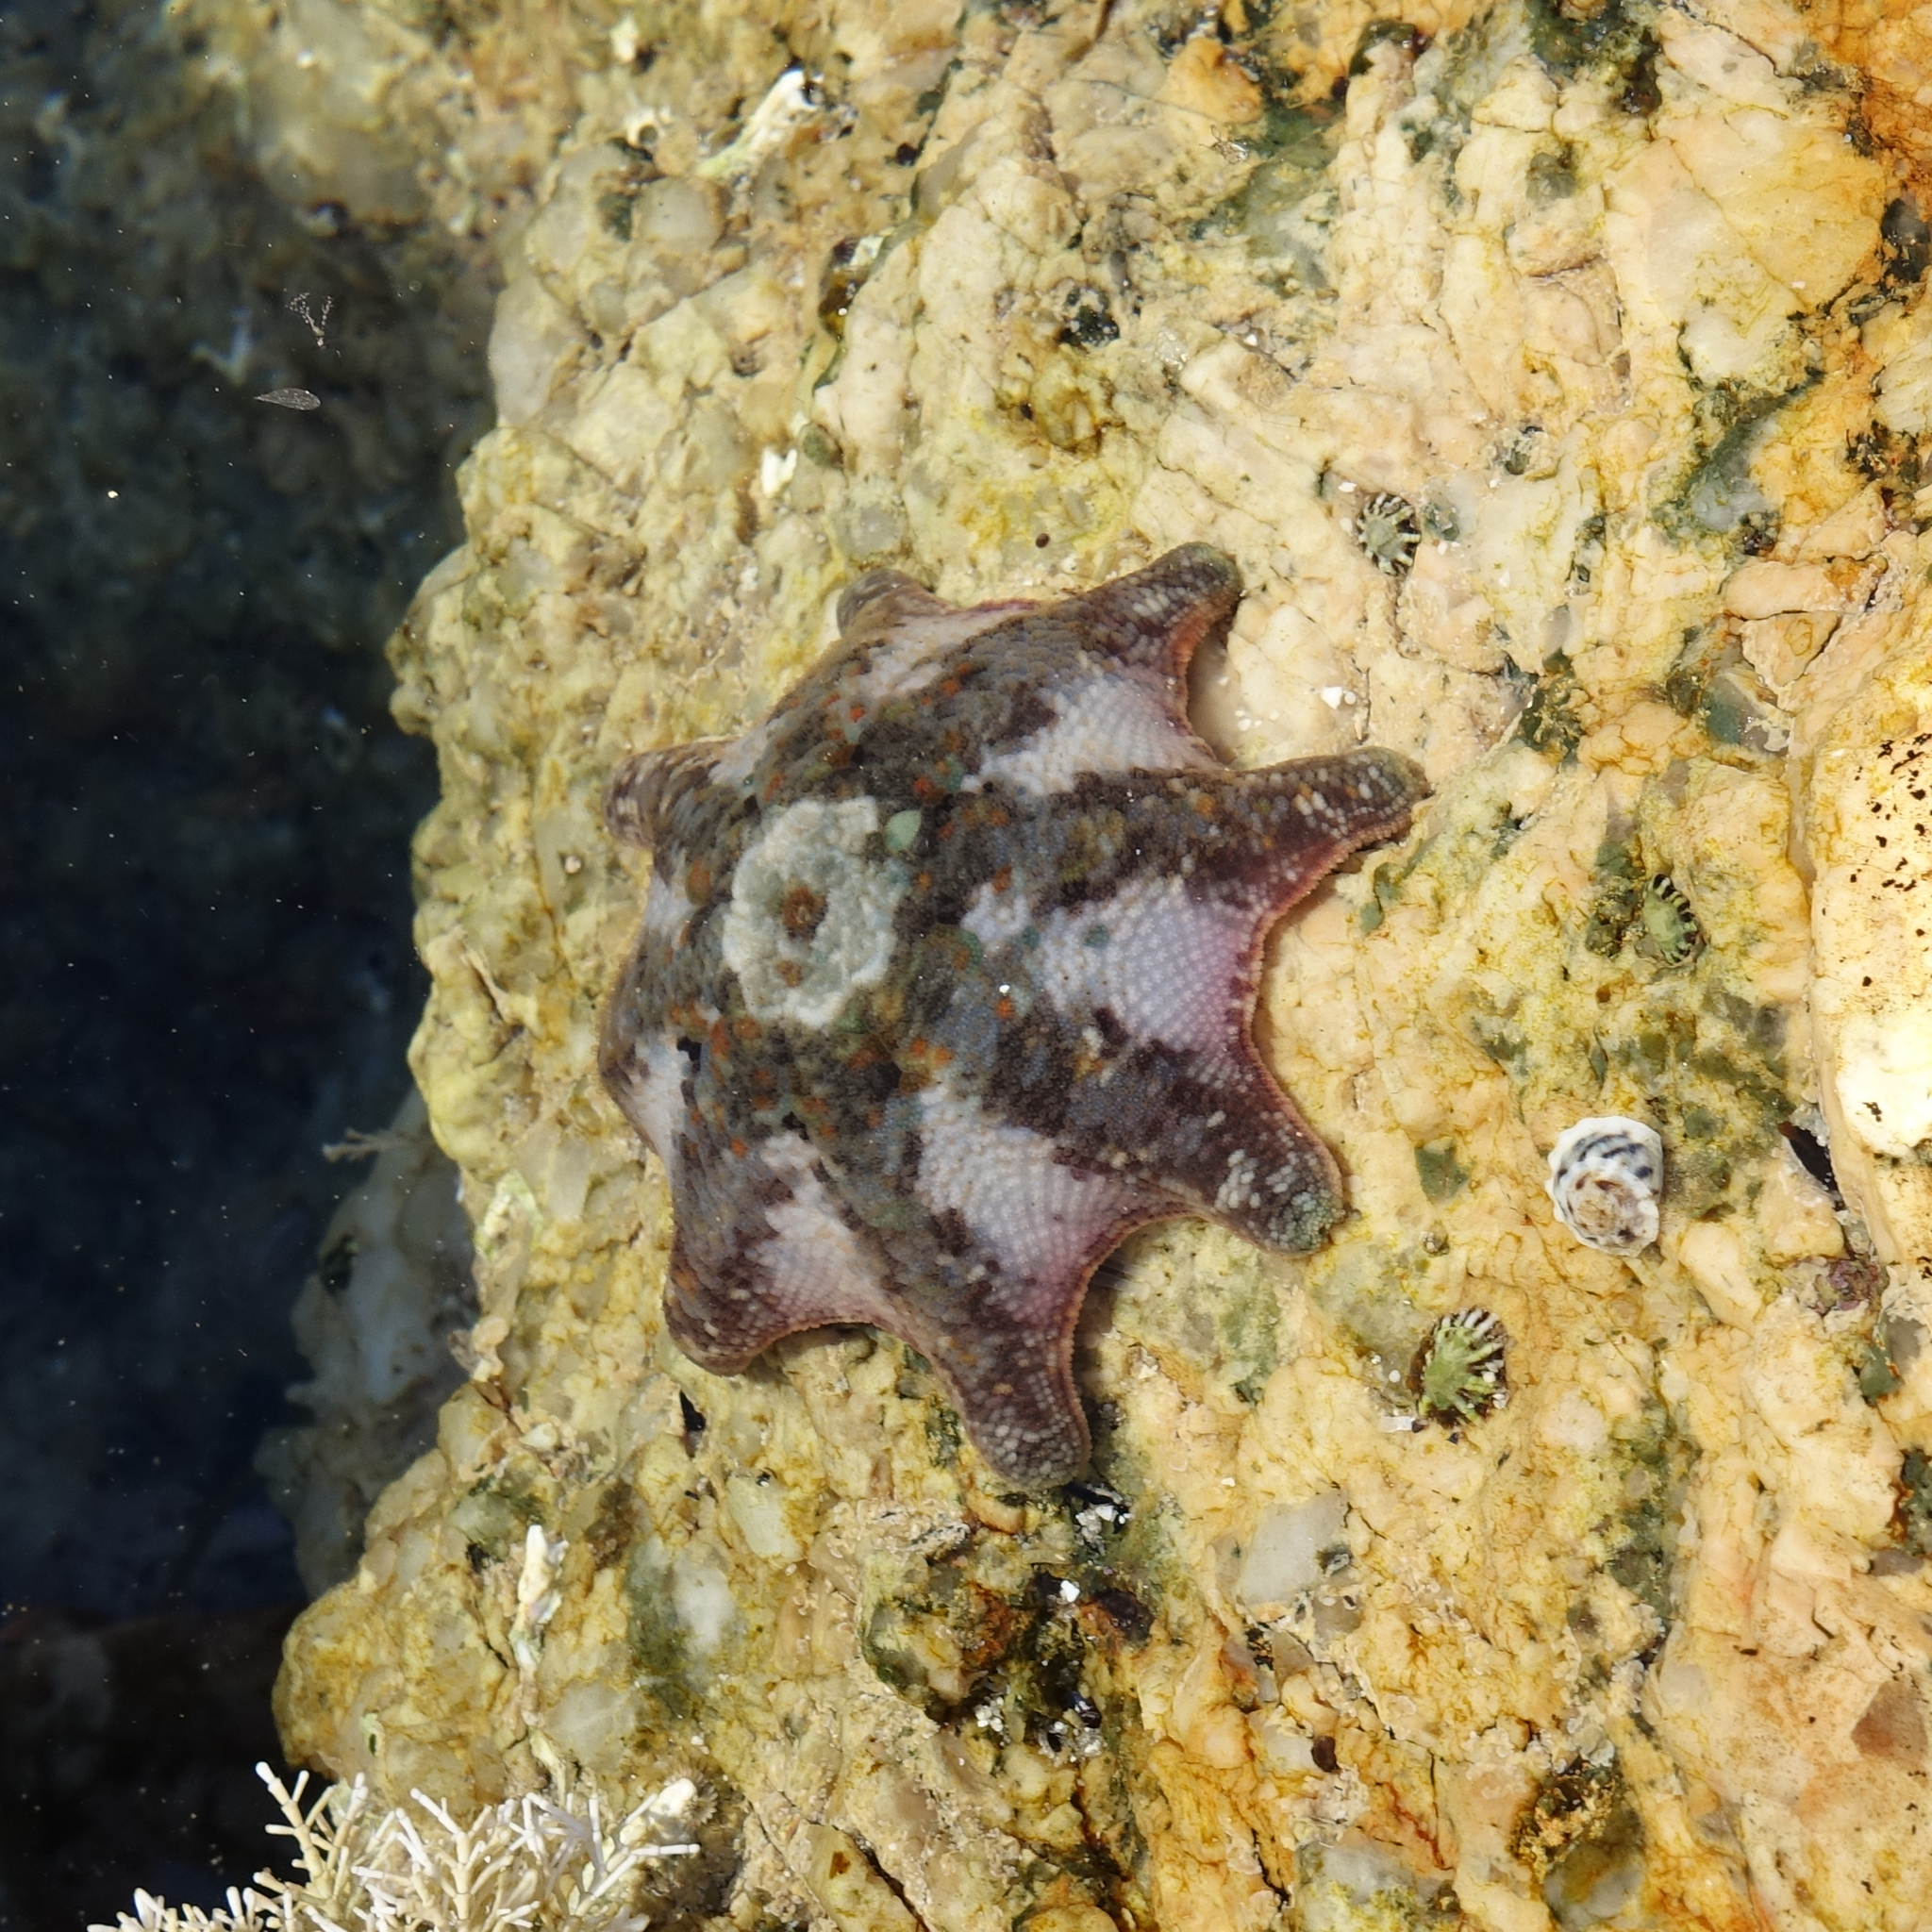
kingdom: Animalia
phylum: Echinodermata
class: Asteroidea
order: Valvatida
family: Asterinidae
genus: Meridiastra
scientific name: Meridiastra calcar
